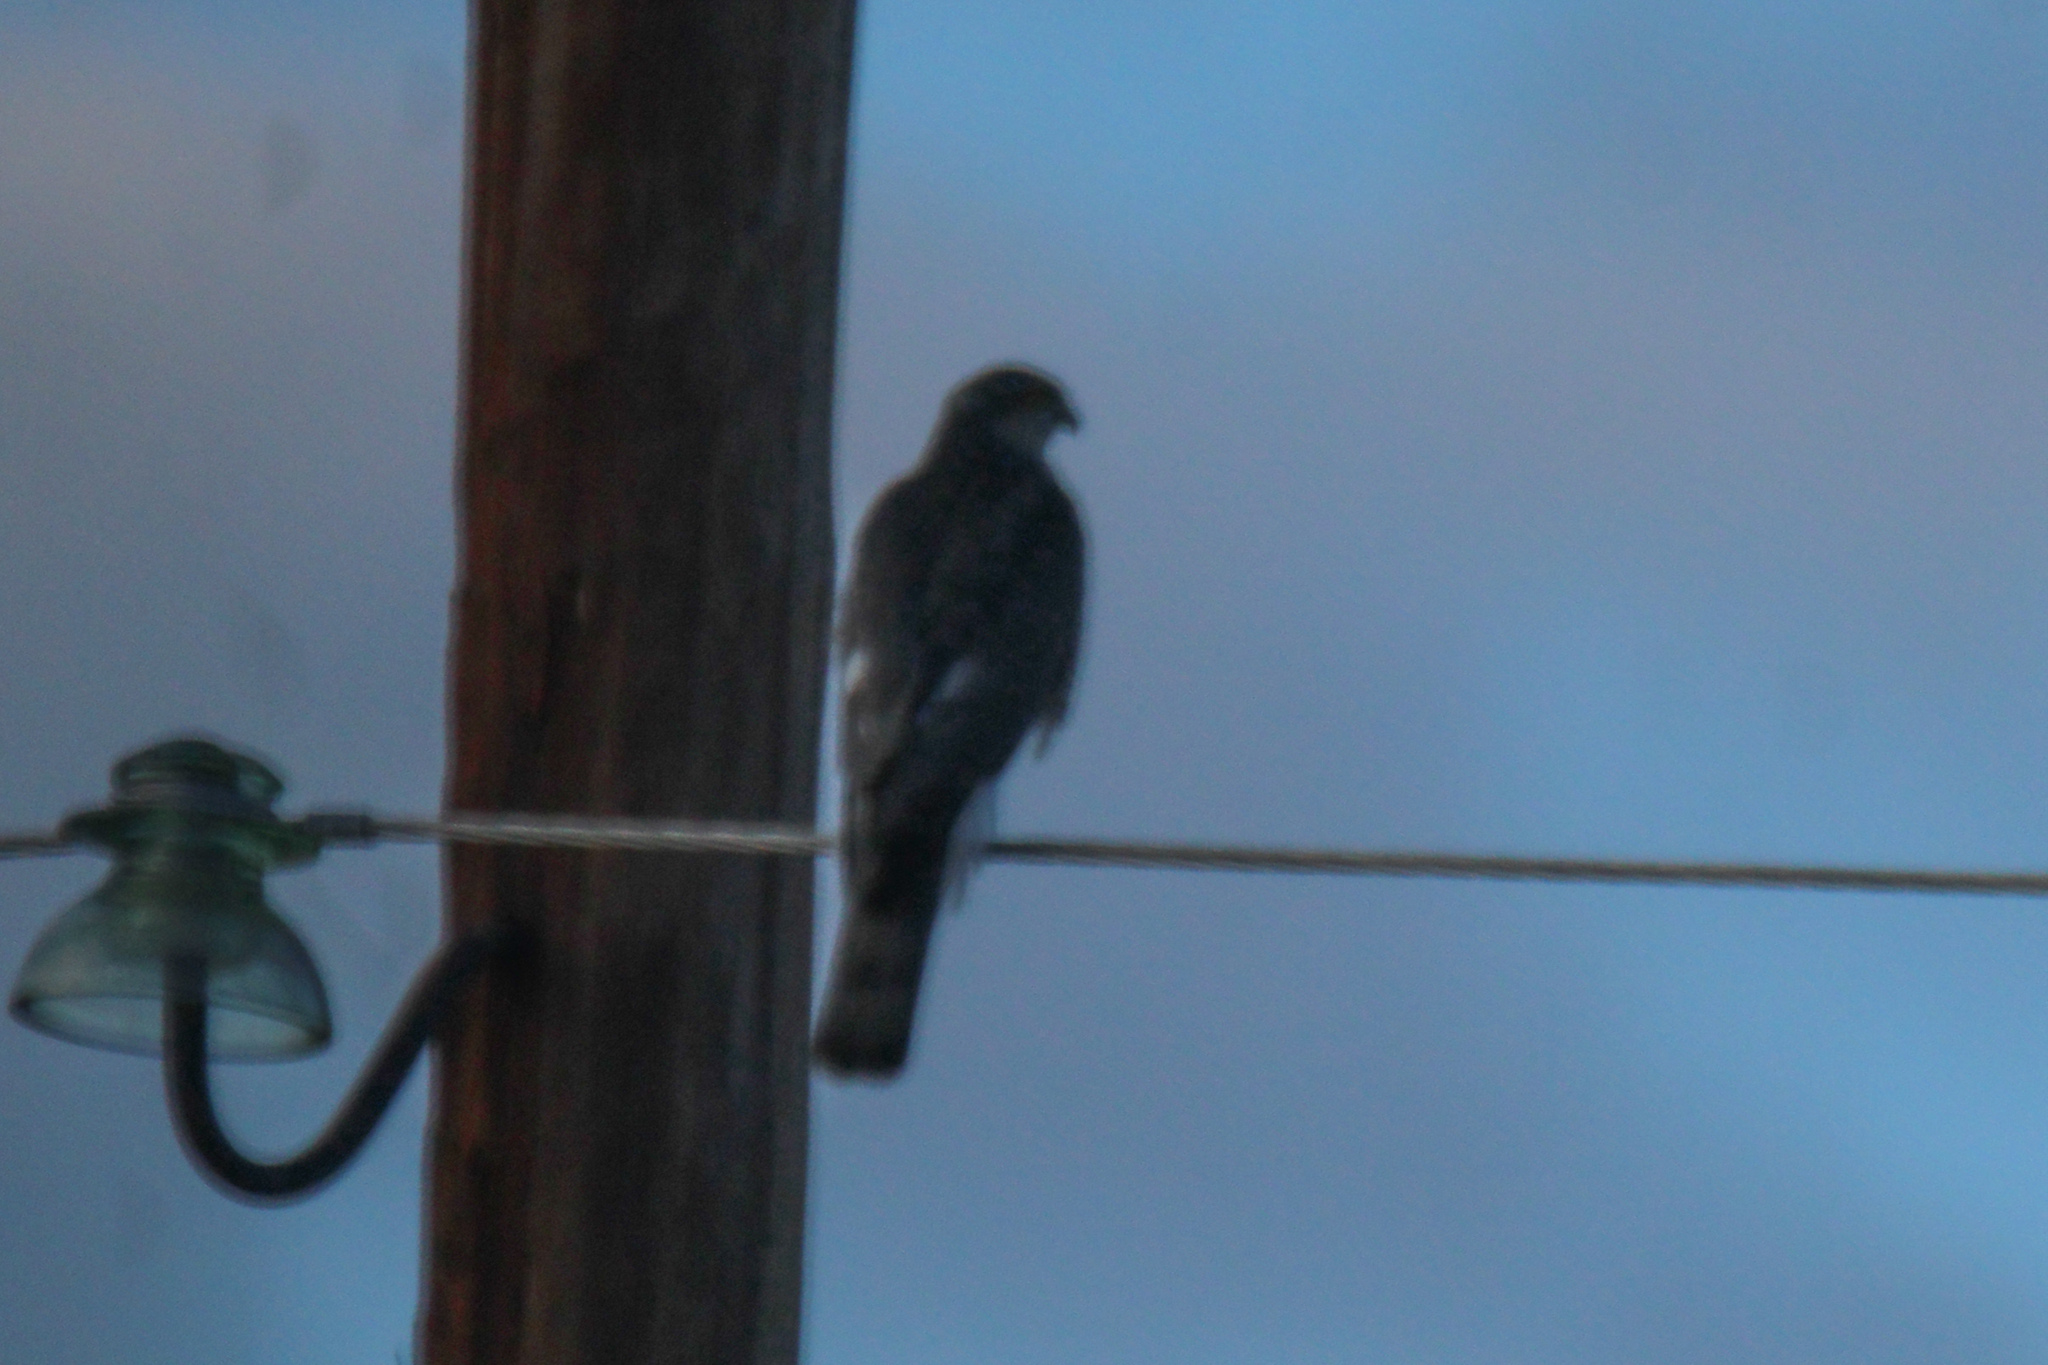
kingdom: Animalia
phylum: Chordata
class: Aves
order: Accipitriformes
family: Accipitridae
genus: Accipiter
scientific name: Accipiter nisus
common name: Eurasian sparrowhawk
